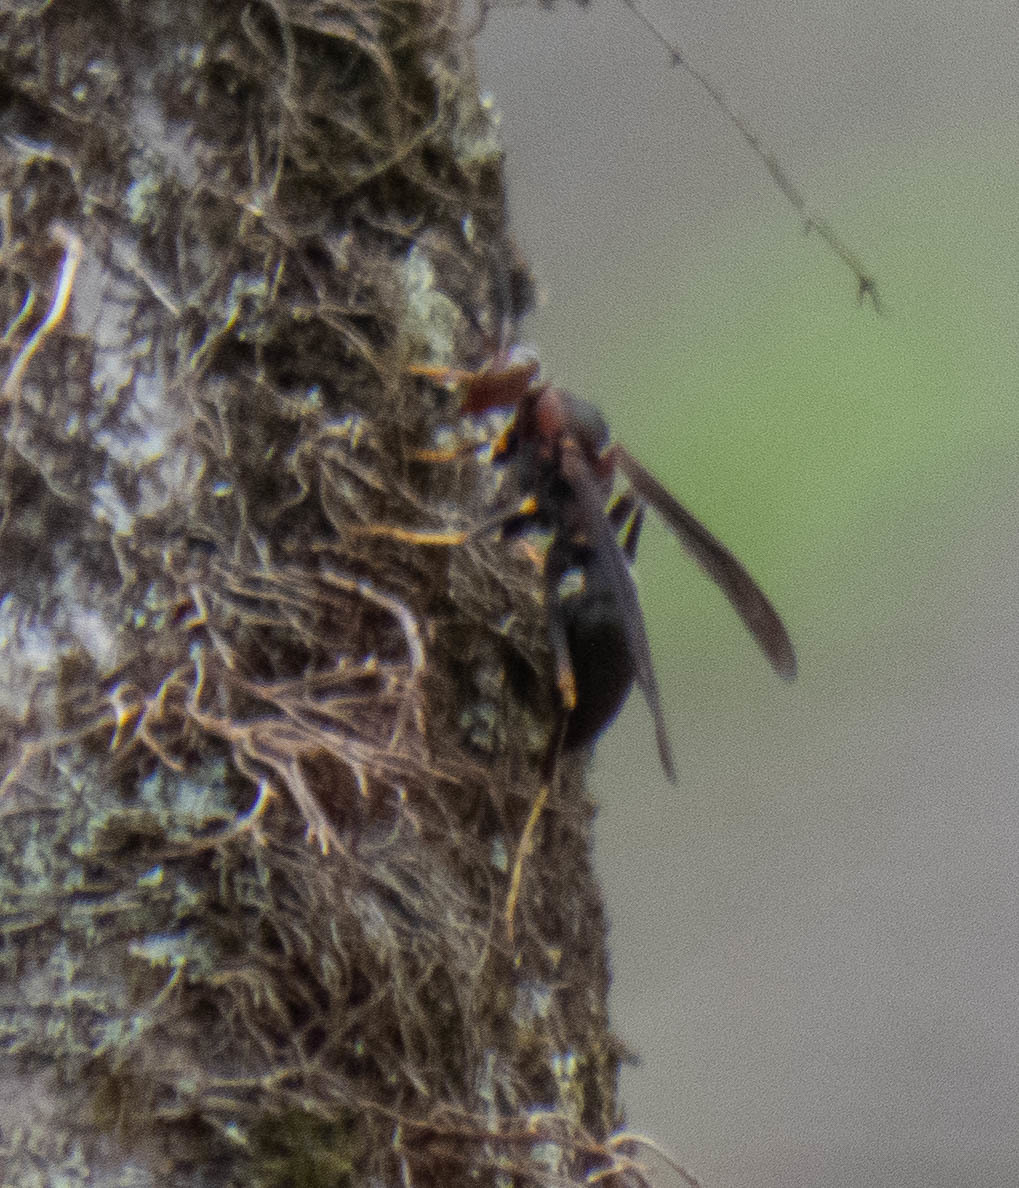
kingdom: Animalia
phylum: Arthropoda
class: Insecta
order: Hymenoptera
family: Eumenidae
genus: Polistes
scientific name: Polistes metricus
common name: Metric paper wasp
